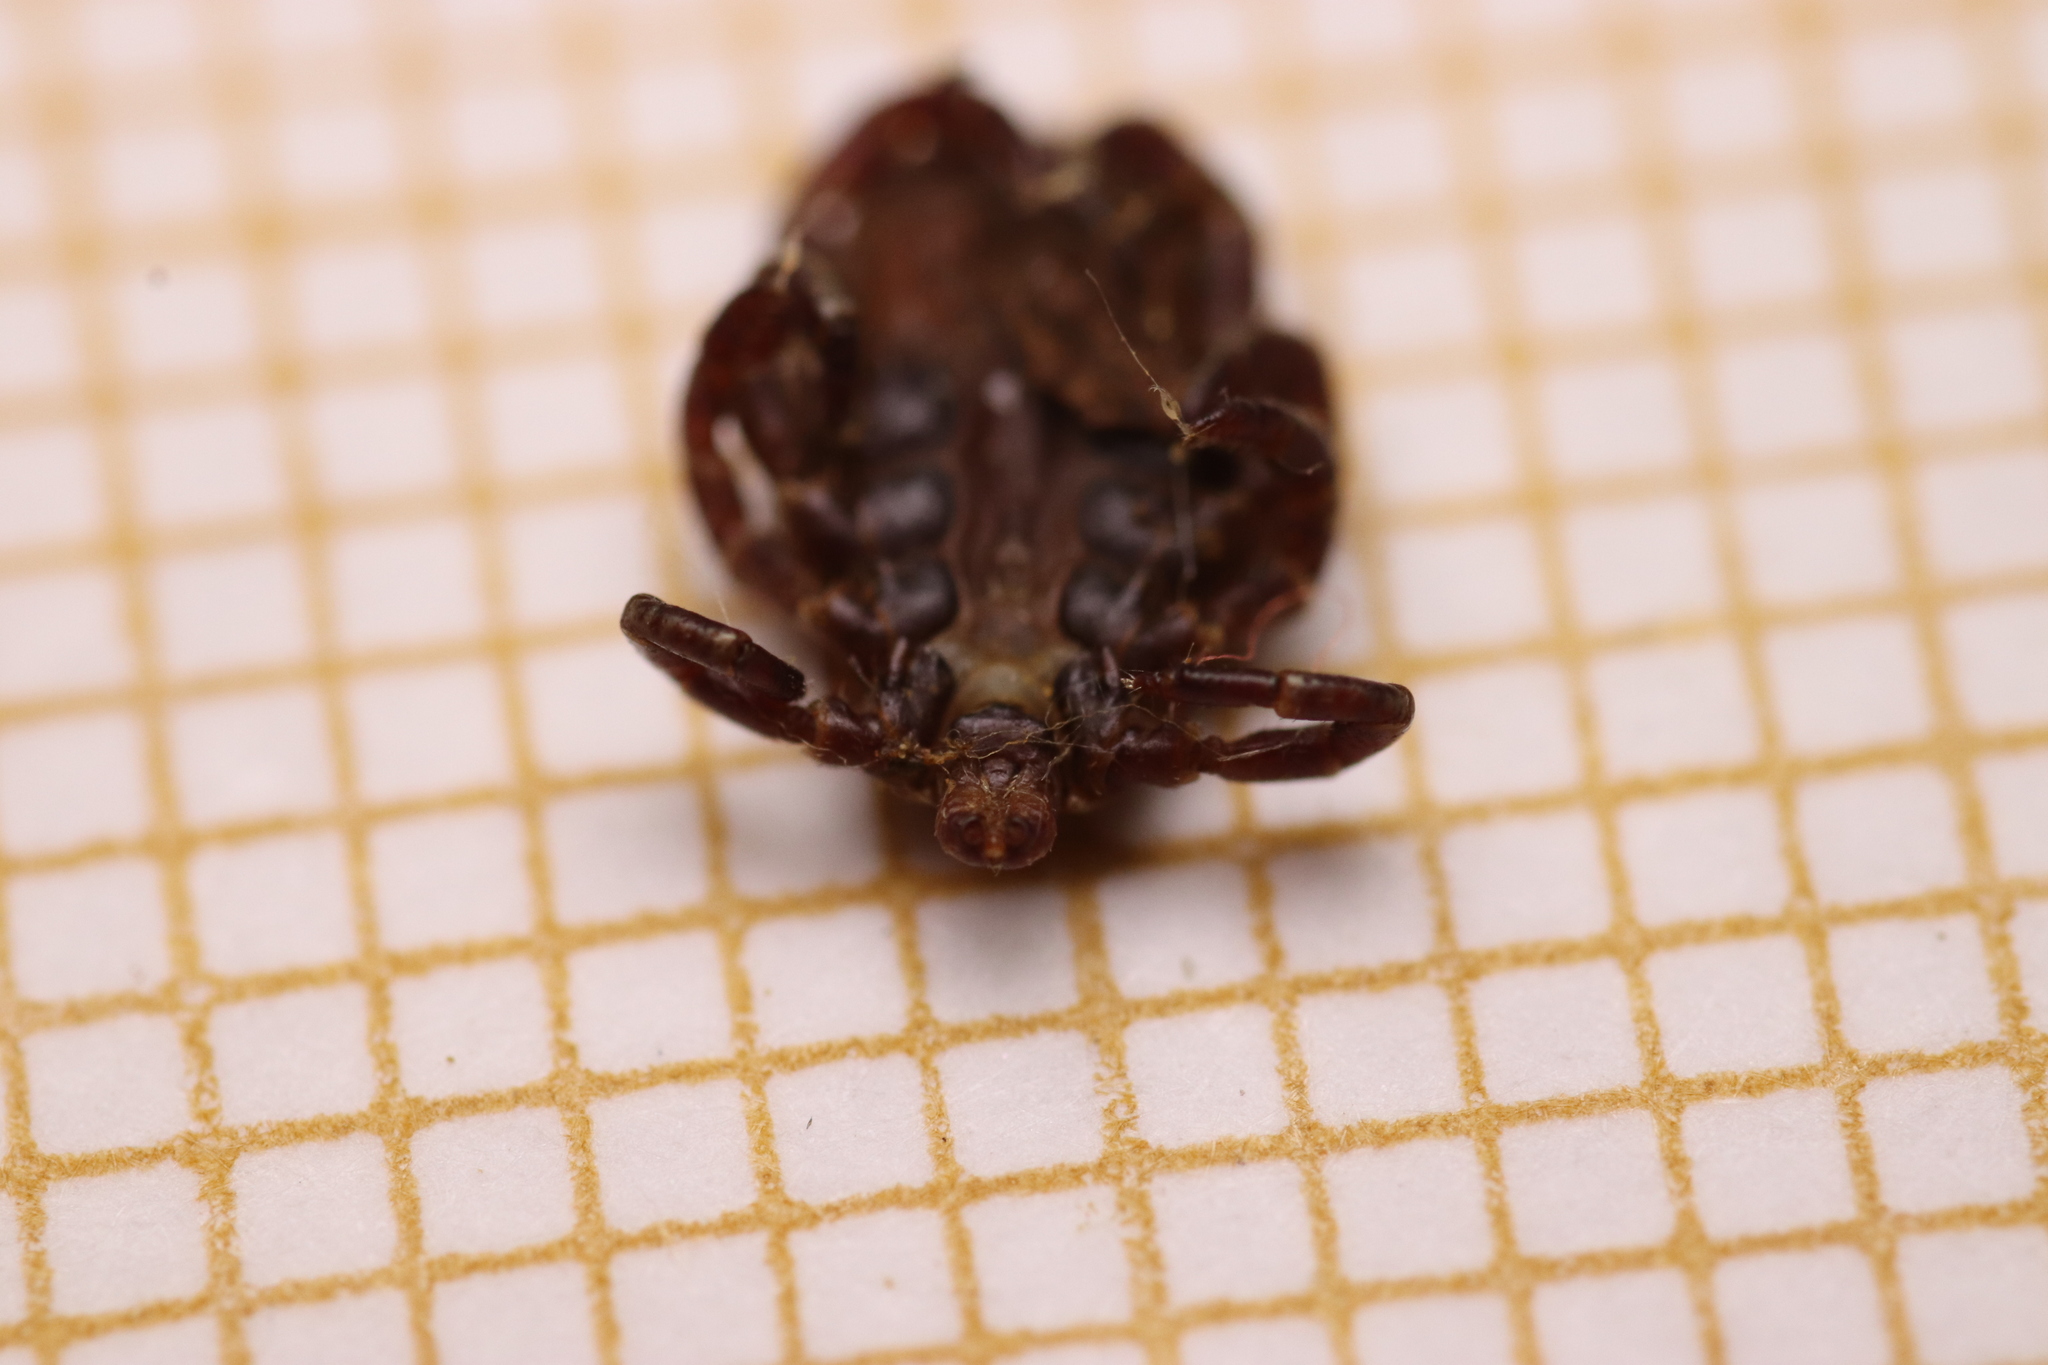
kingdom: Animalia
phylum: Arthropoda
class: Arachnida
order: Ixodida
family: Ixodidae
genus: Dermacentor
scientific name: Dermacentor marginatus
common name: Ornate sheep tick
